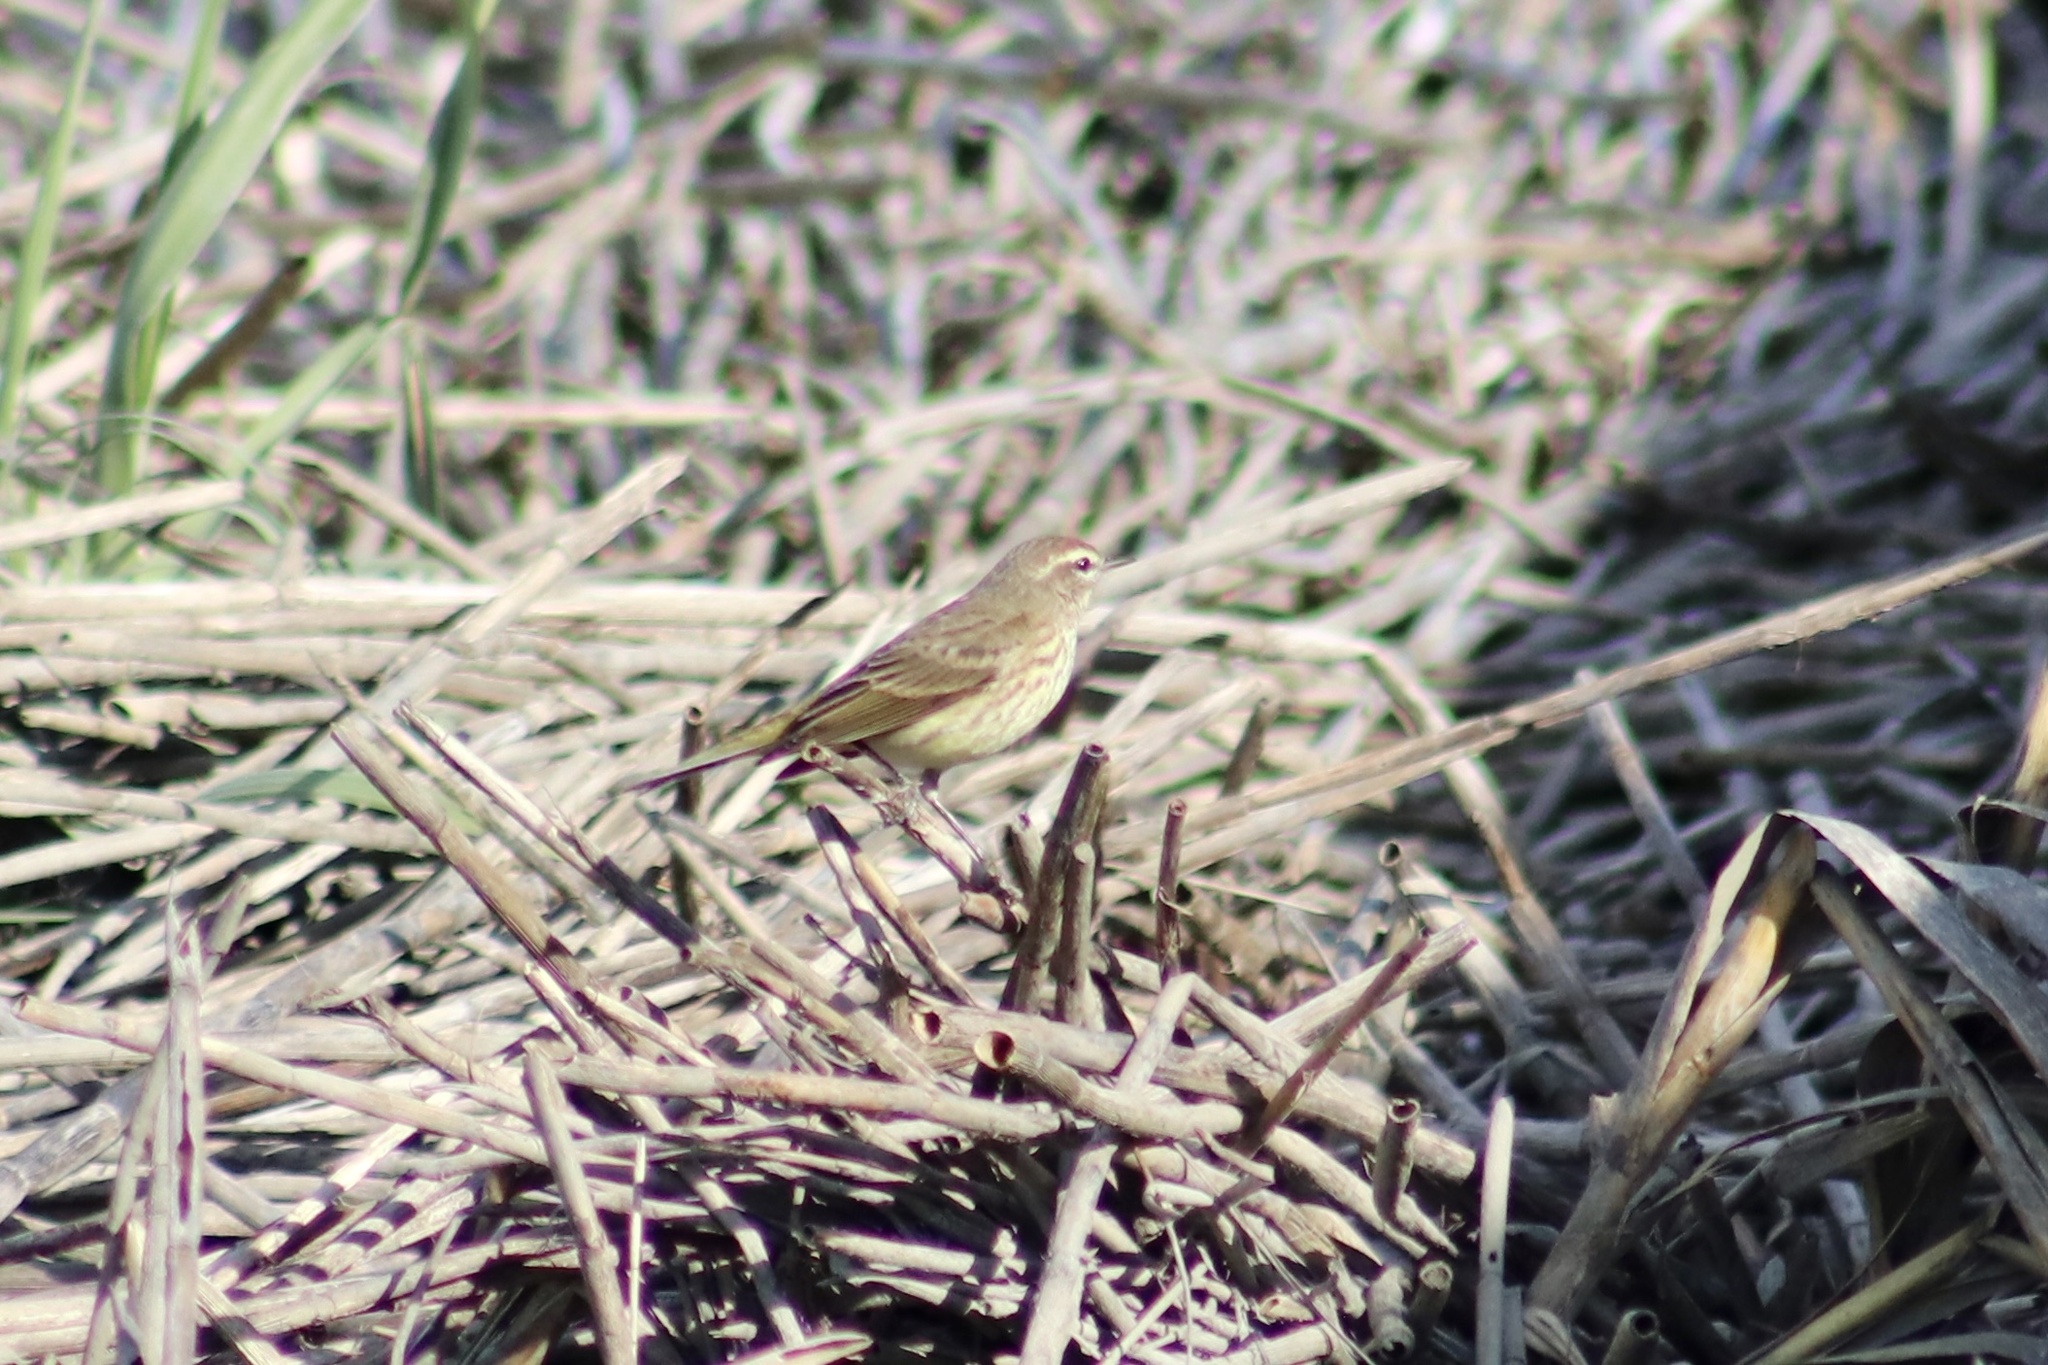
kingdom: Animalia
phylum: Chordata
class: Aves
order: Passeriformes
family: Parulidae
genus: Setophaga
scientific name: Setophaga palmarum
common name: Palm warbler
